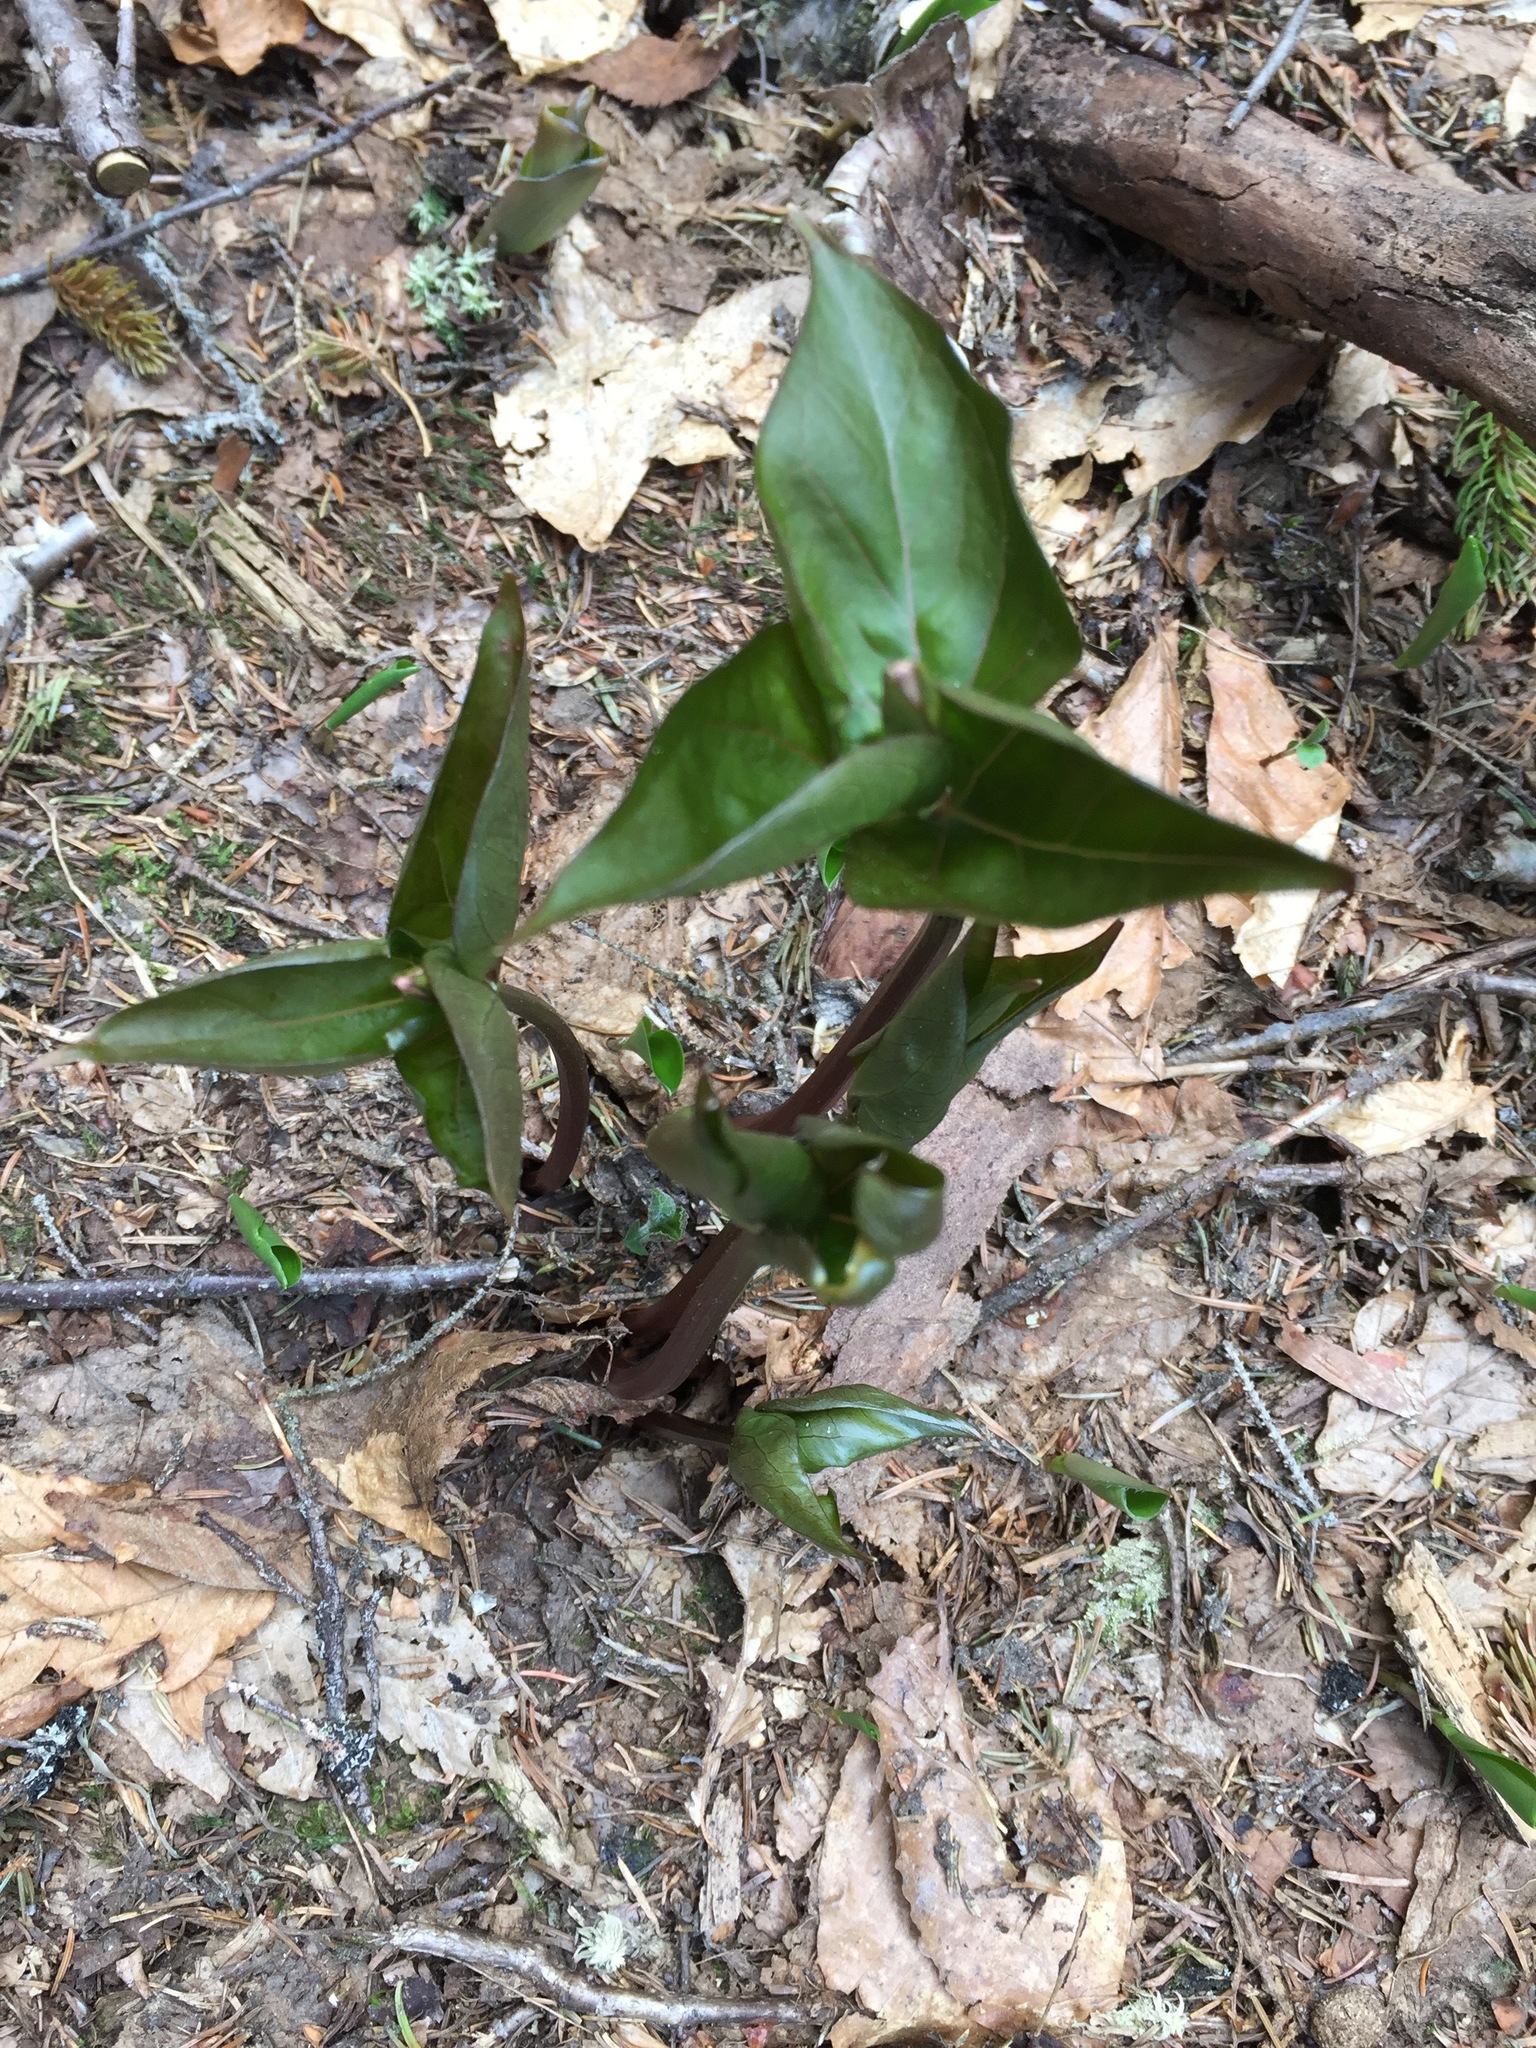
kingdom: Plantae
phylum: Tracheophyta
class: Liliopsida
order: Liliales
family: Melanthiaceae
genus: Trillium
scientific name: Trillium undulatum
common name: Paint trillium
